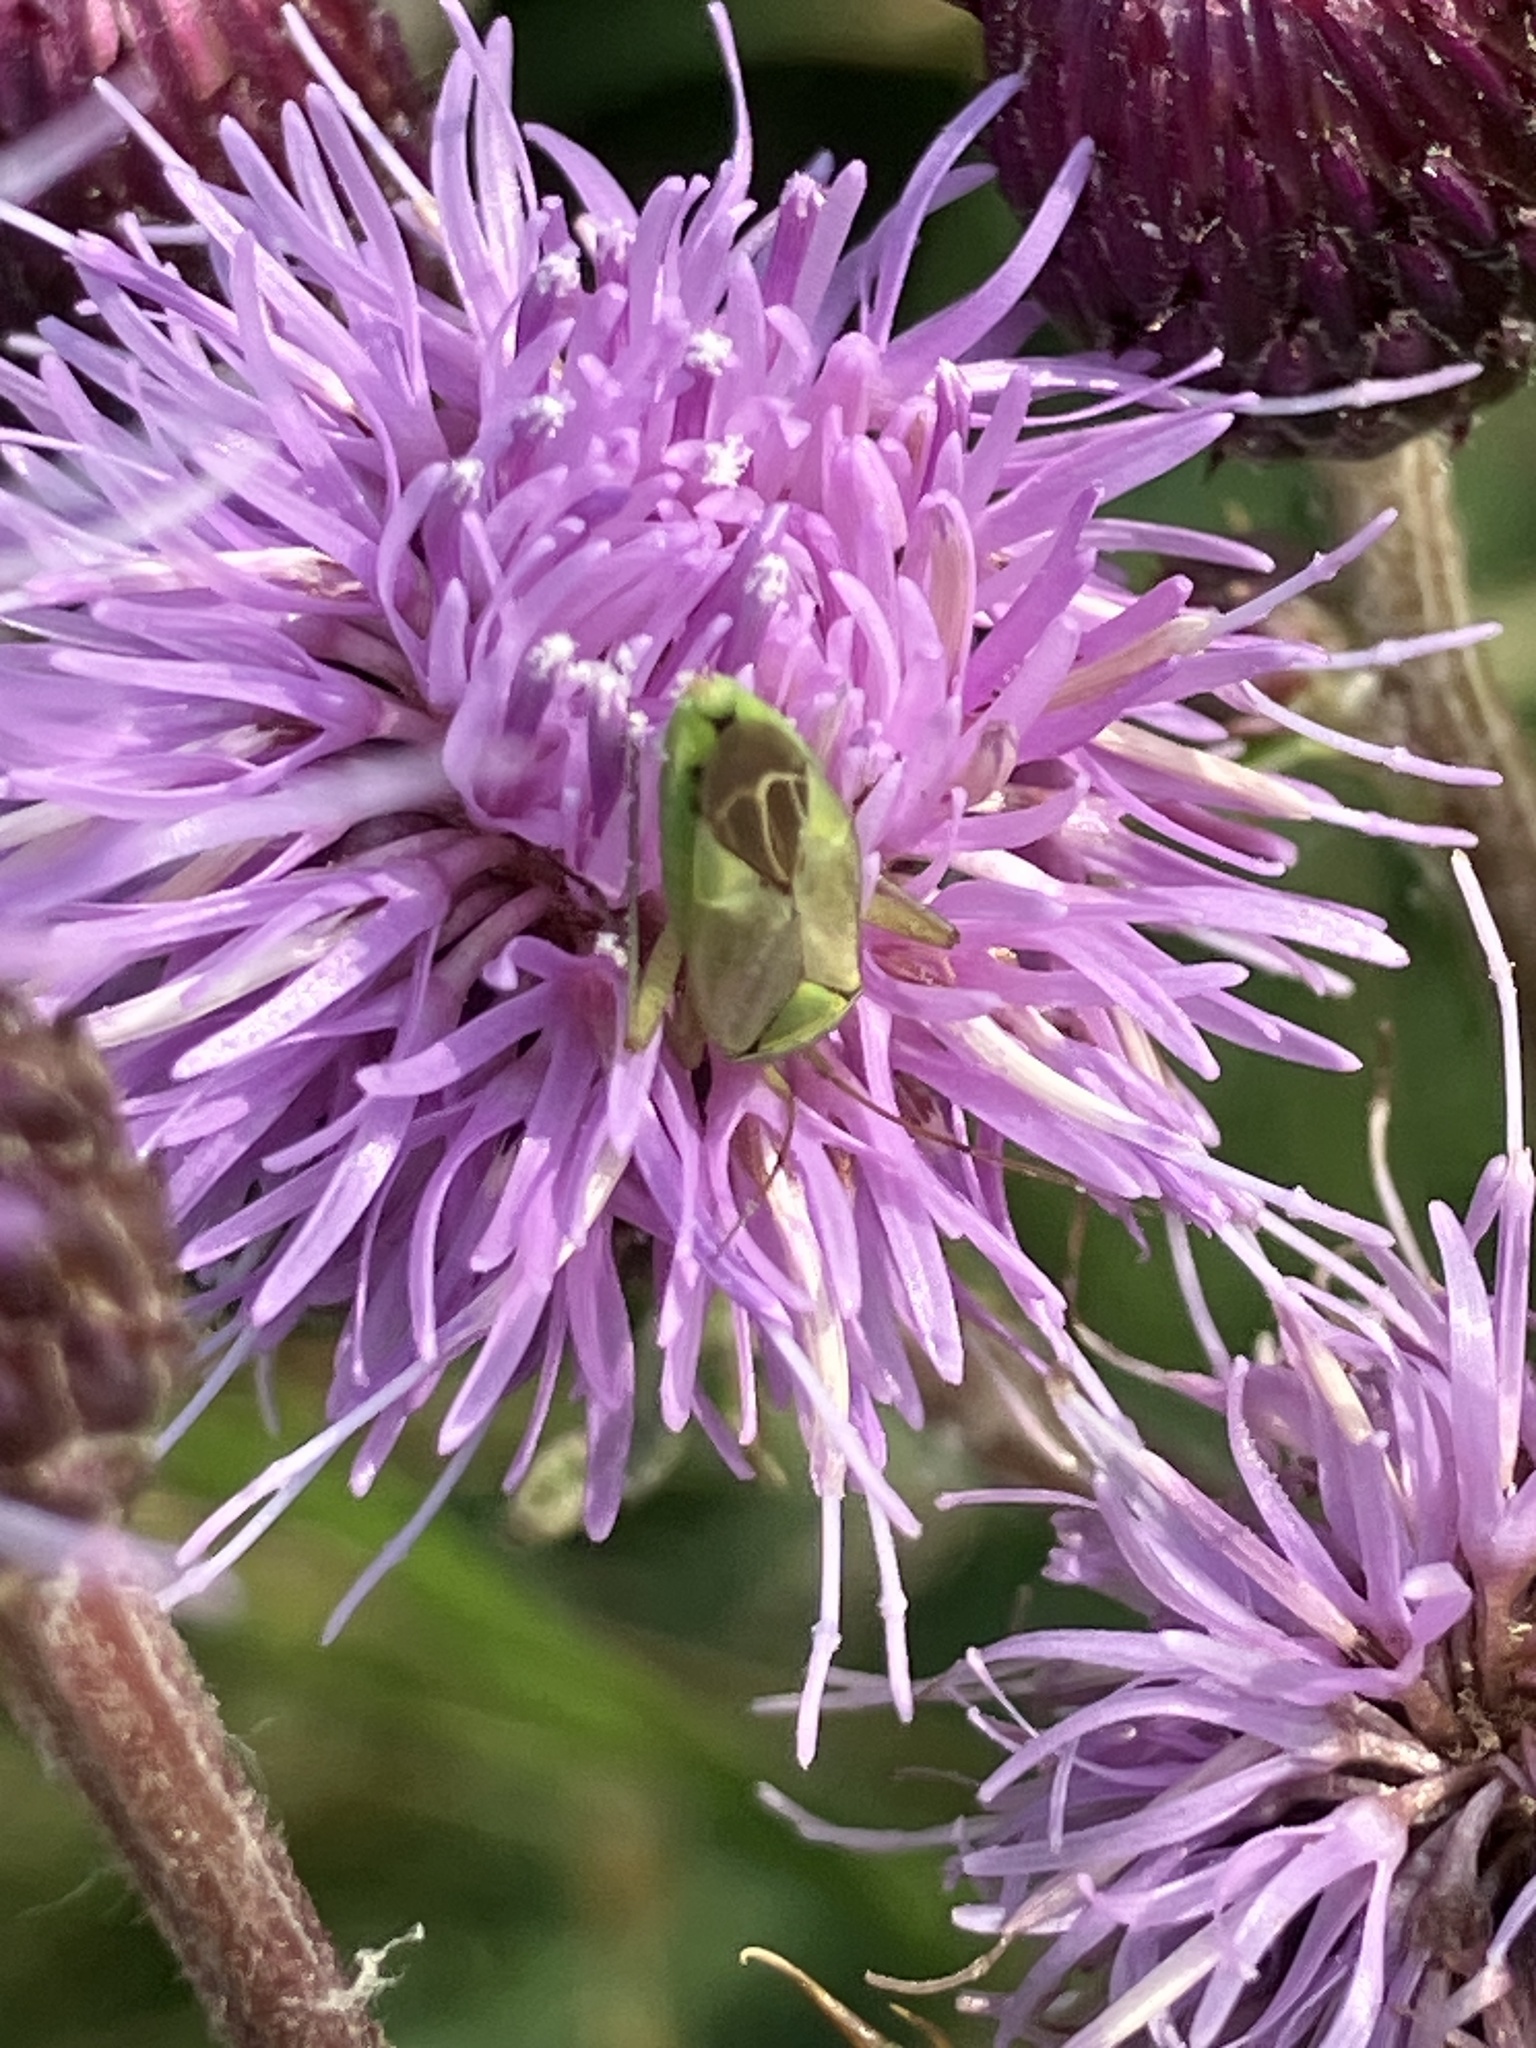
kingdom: Animalia
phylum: Arthropoda
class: Insecta
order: Hemiptera
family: Miridae
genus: Closterotomus
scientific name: Closterotomus norvegicus
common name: Plant bug
